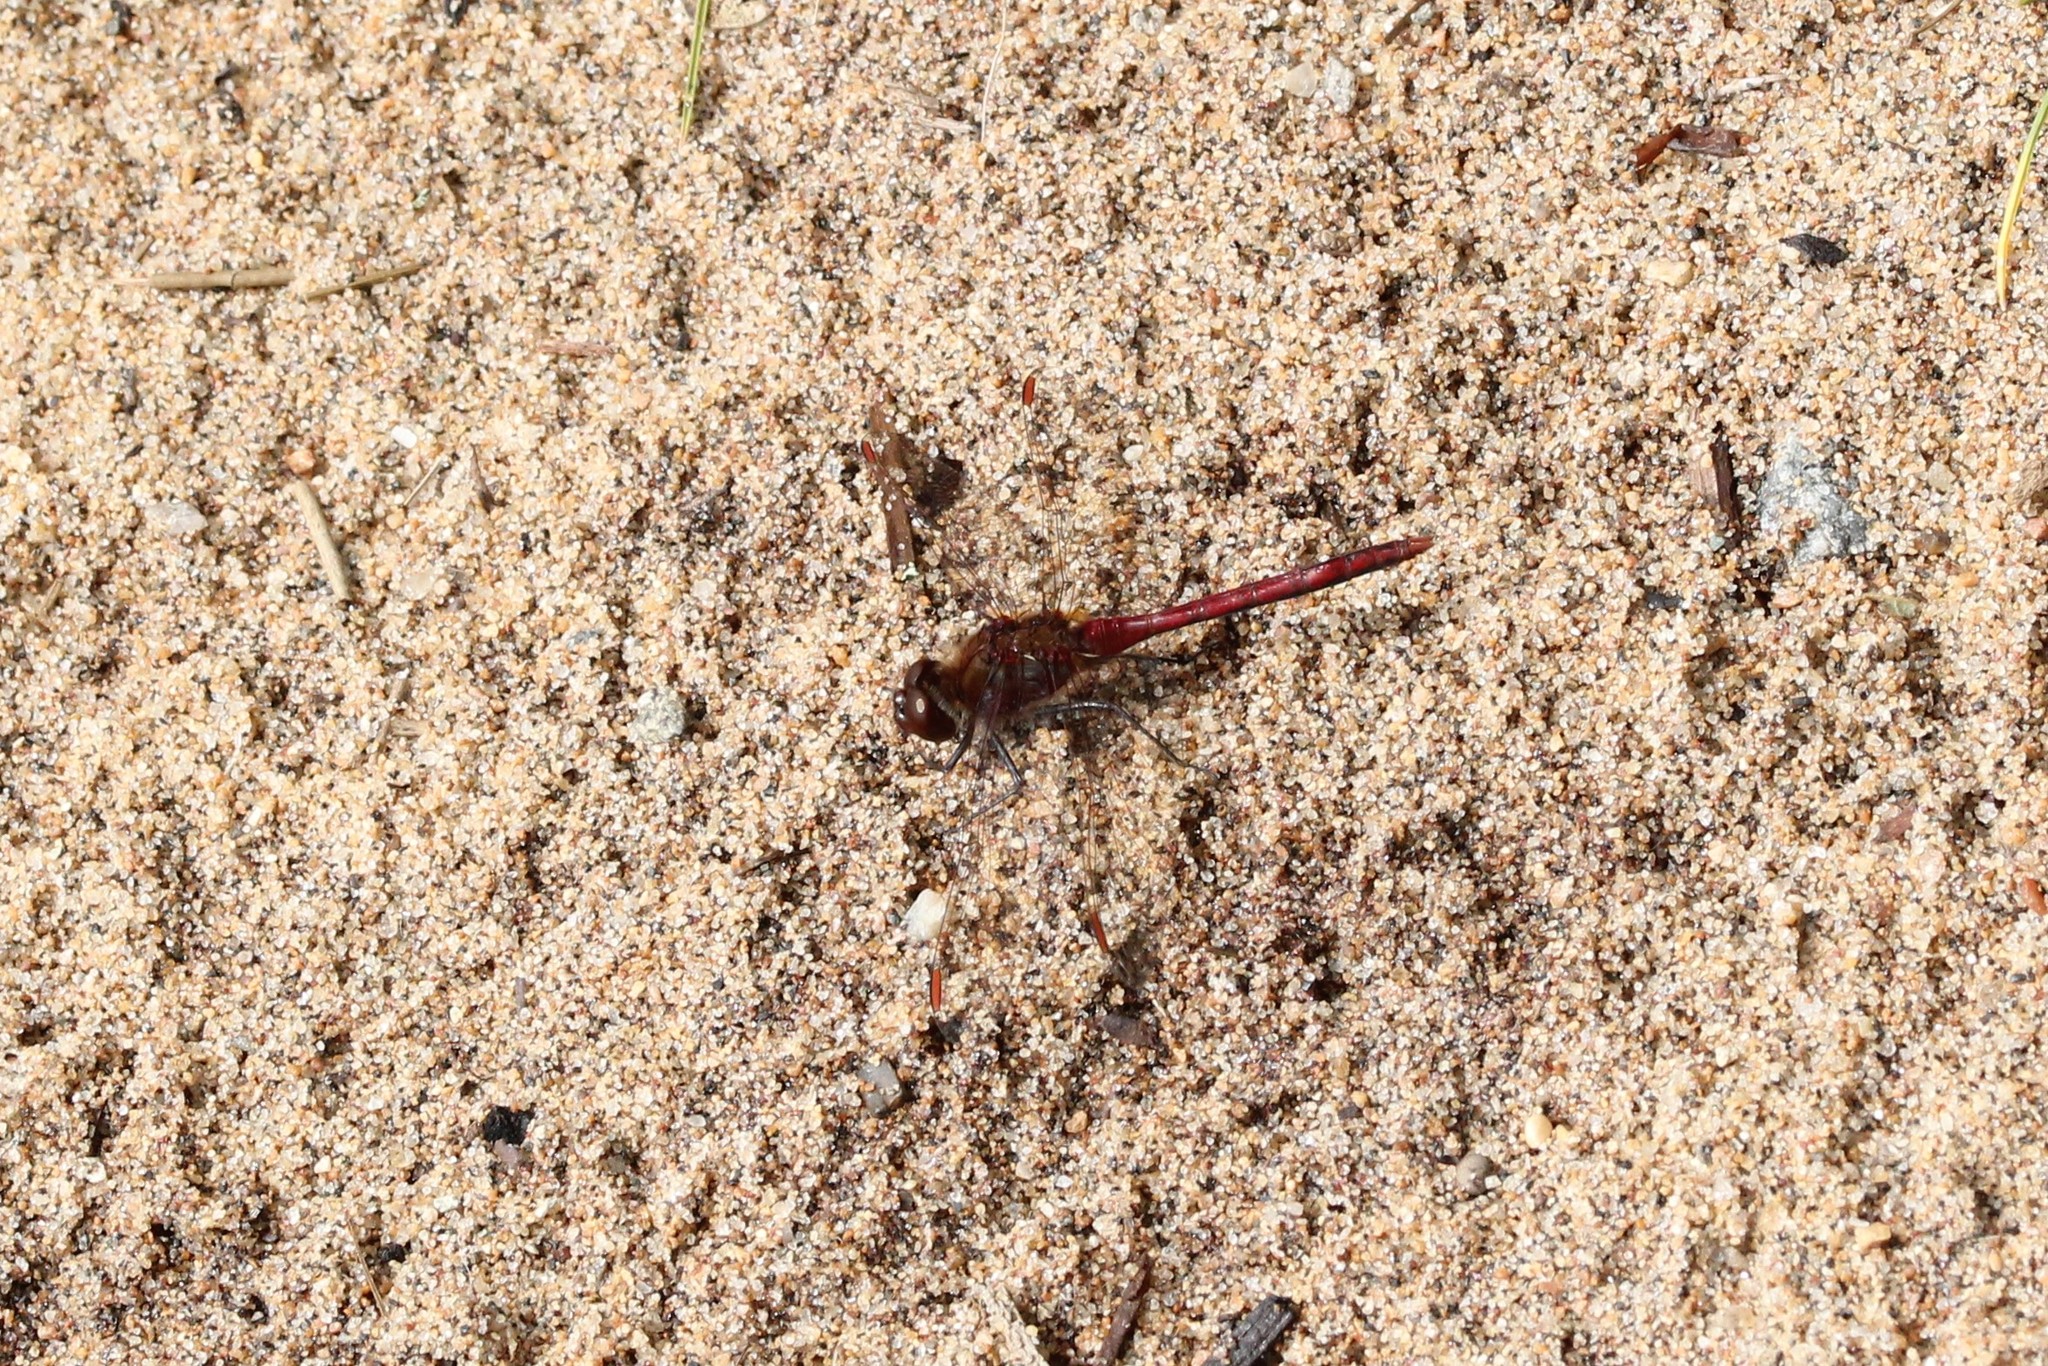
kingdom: Animalia
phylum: Arthropoda
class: Insecta
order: Odonata
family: Libellulidae
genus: Sympetrum
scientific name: Sympetrum costiferum
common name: Saffron-winged meadowhawk
